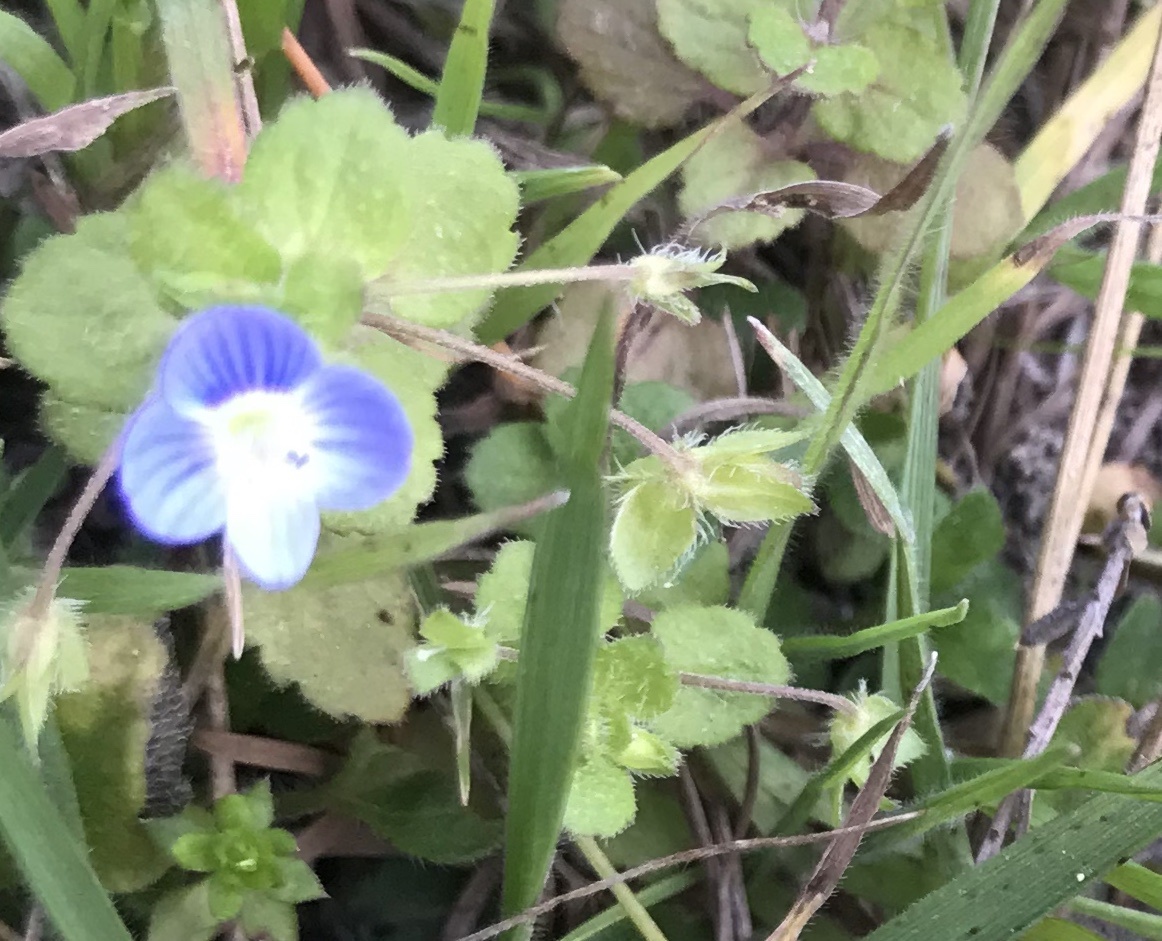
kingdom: Plantae
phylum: Tracheophyta
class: Magnoliopsida
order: Lamiales
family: Plantaginaceae
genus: Veronica
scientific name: Veronica persica
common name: Common field-speedwell
